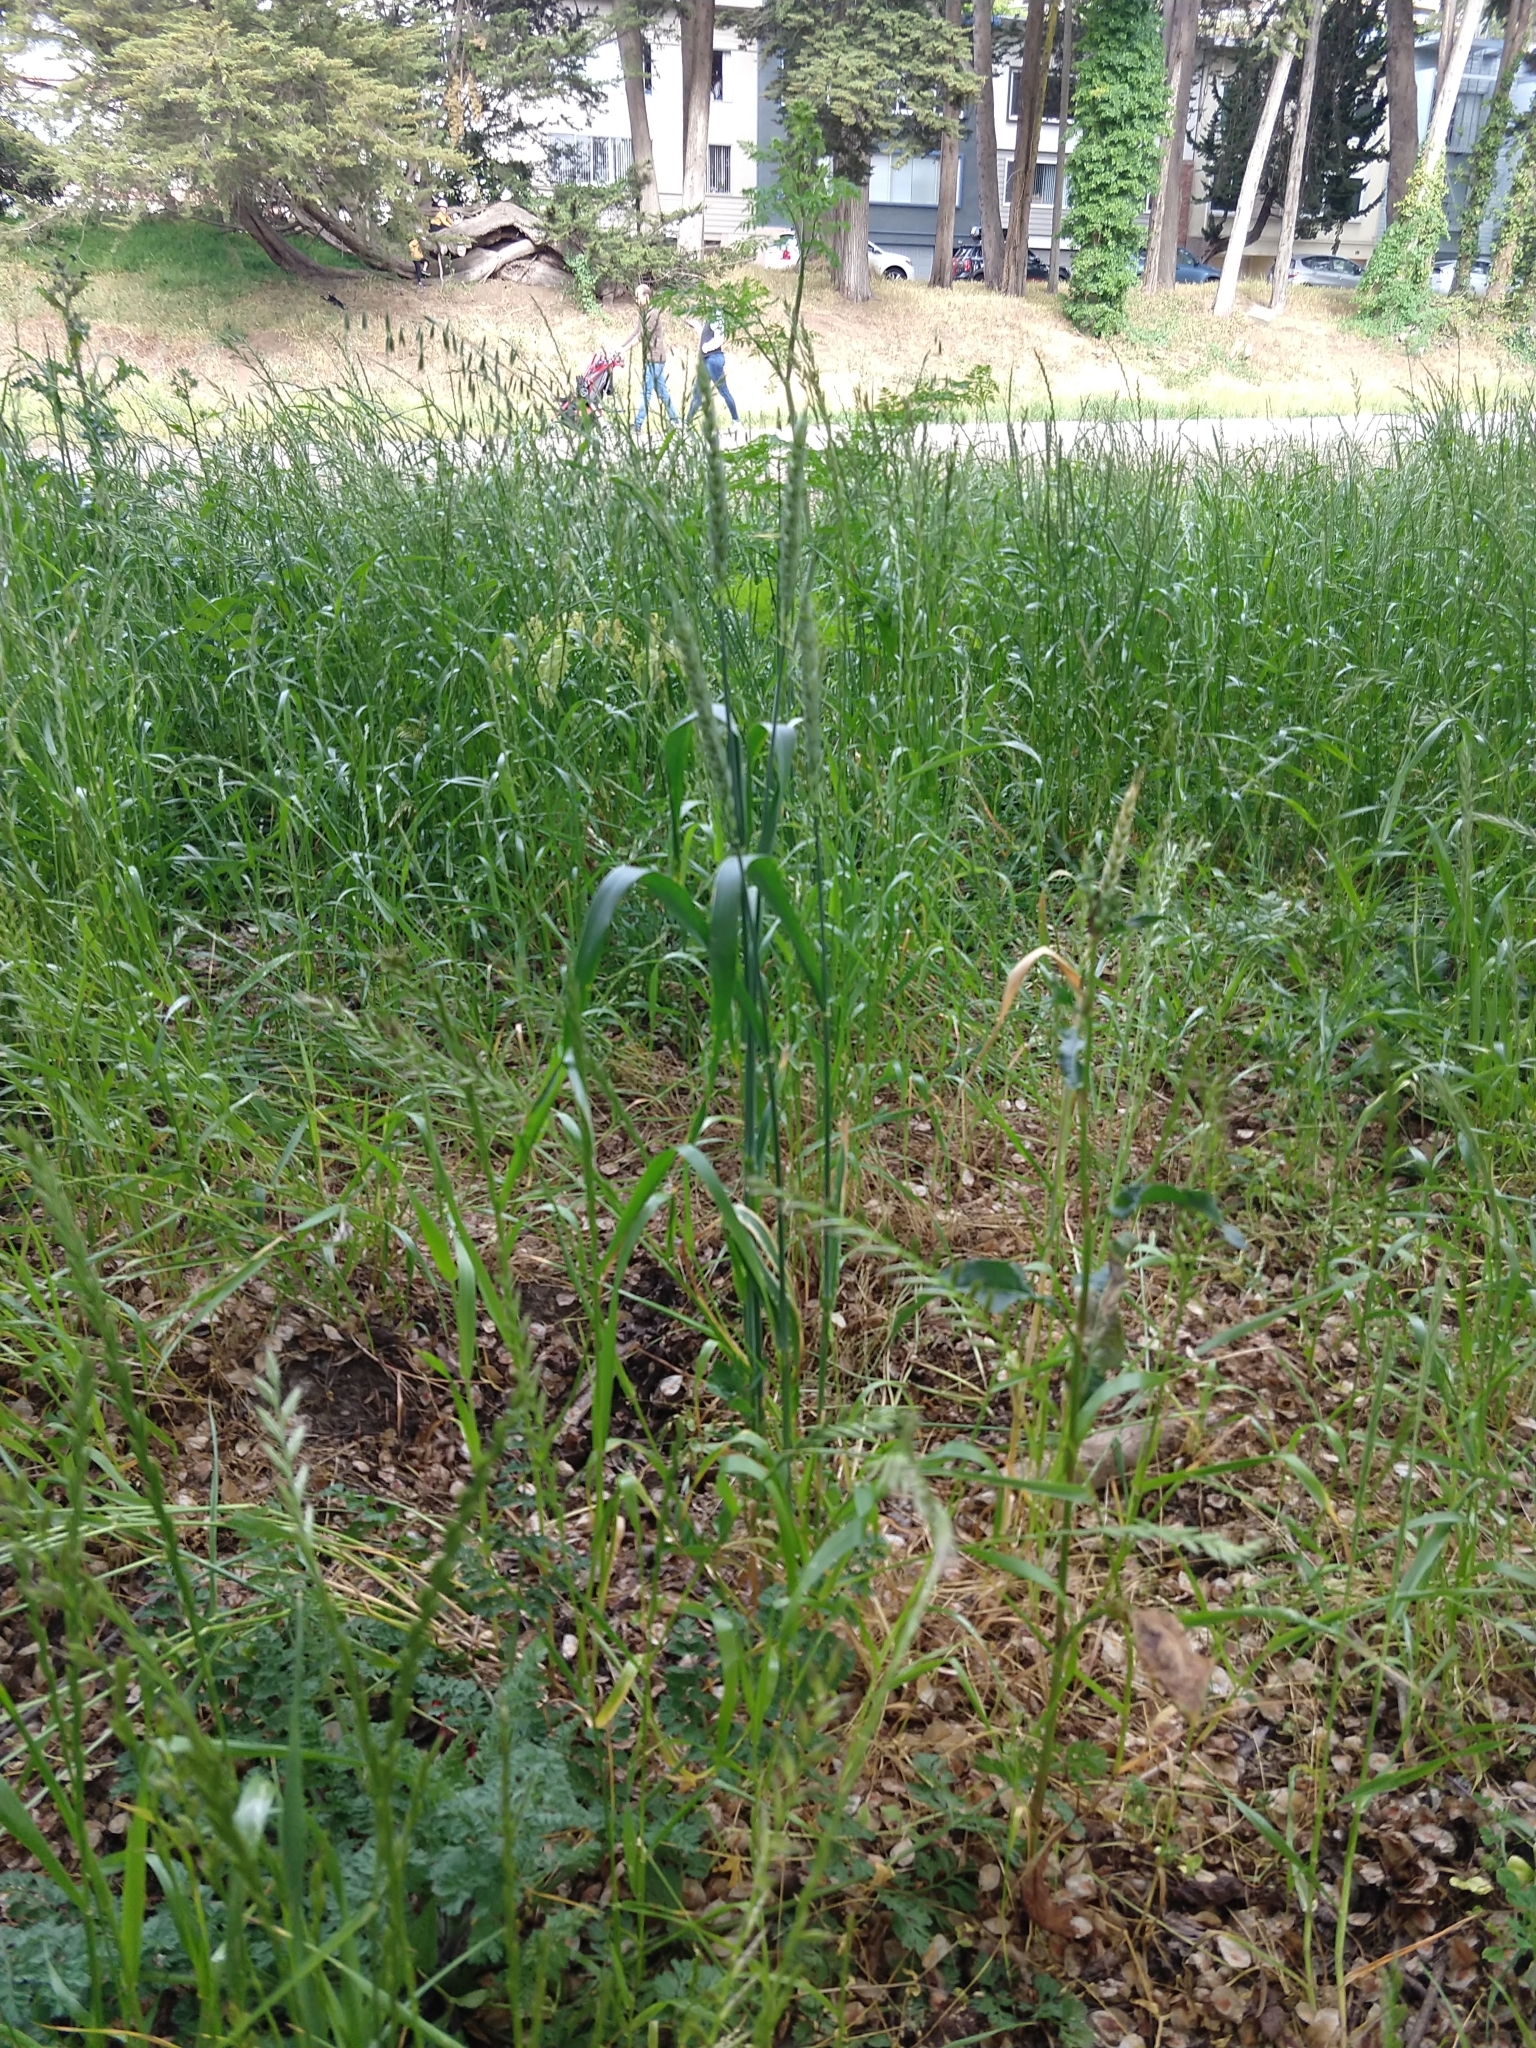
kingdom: Plantae
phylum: Tracheophyta
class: Liliopsida
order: Poales
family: Poaceae
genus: Triticum
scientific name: Triticum aestivum
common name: Common wheat
